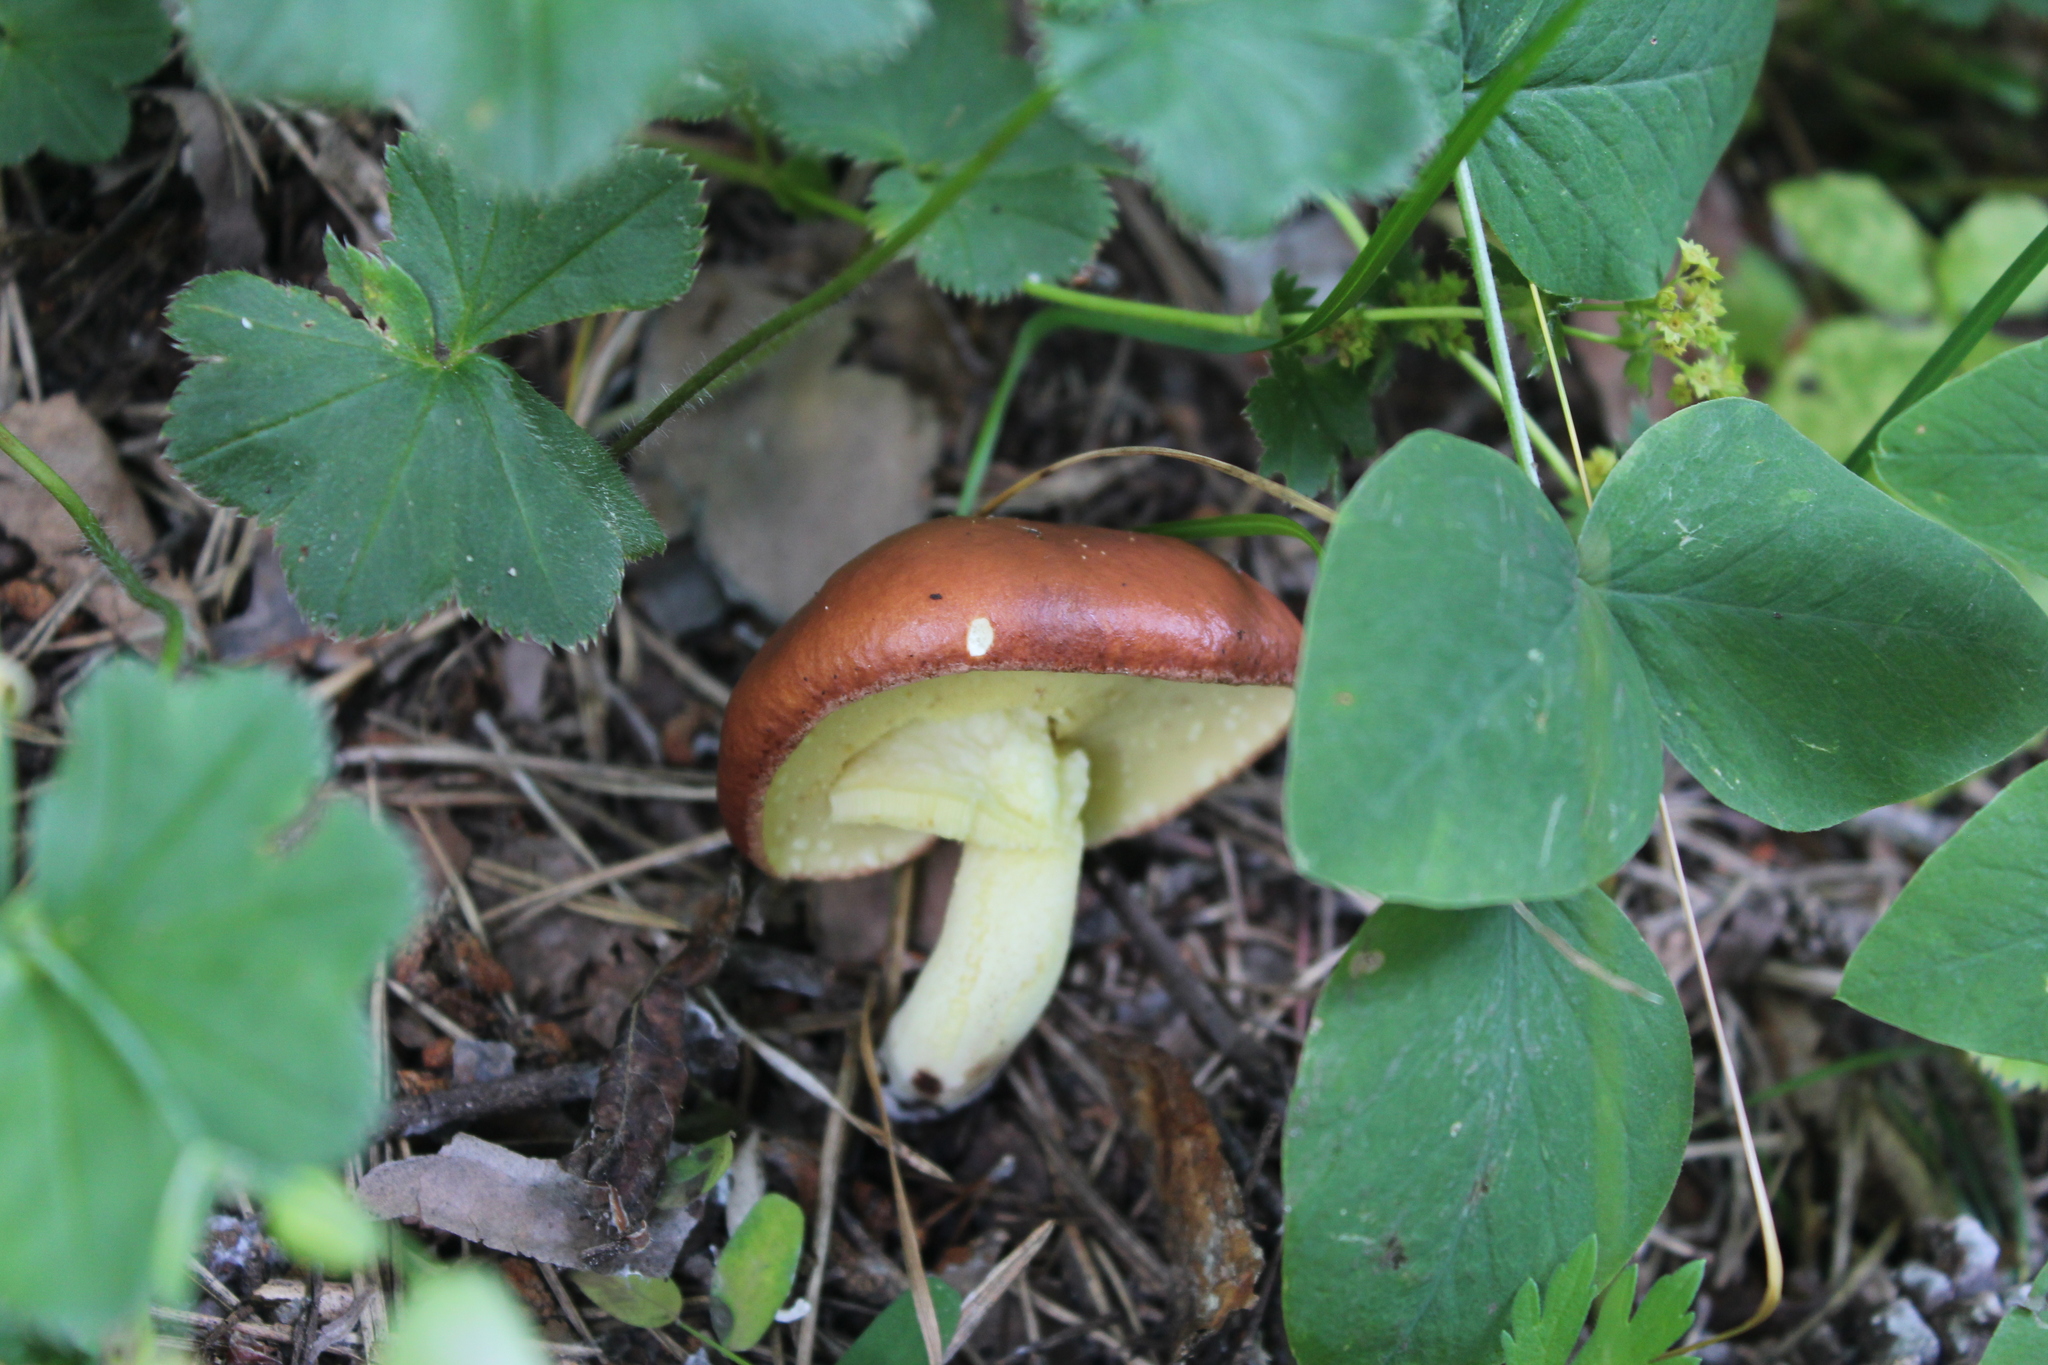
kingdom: Fungi
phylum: Basidiomycota
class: Agaricomycetes
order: Boletales
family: Suillaceae
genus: Suillus
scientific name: Suillus granulatus
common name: Weeping bolete
